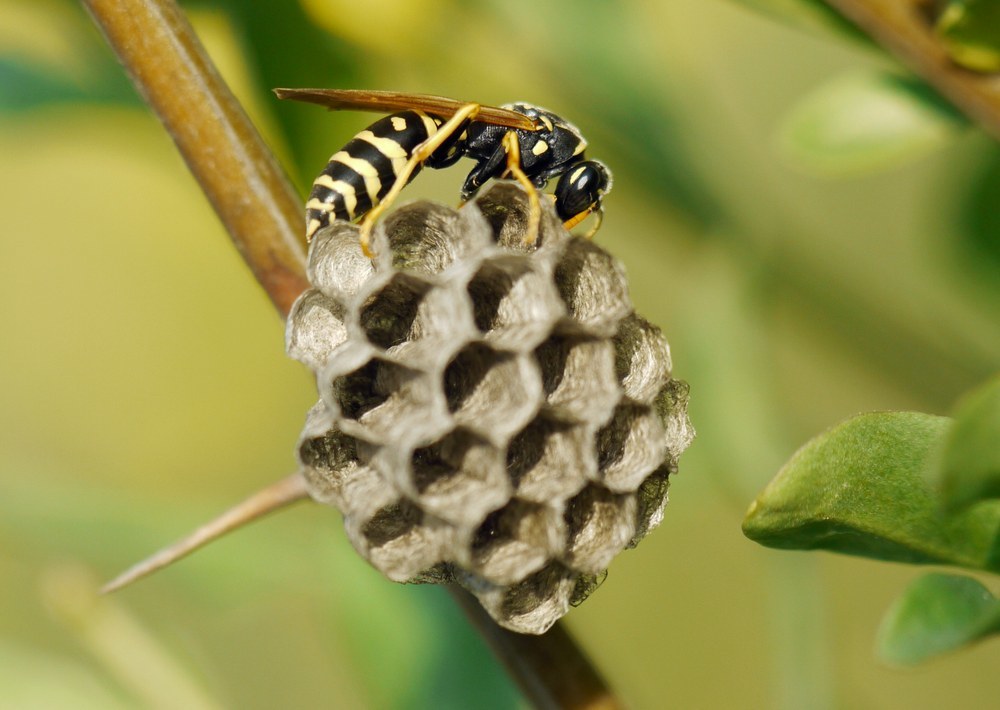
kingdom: Animalia
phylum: Arthropoda
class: Insecta
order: Hymenoptera
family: Eumenidae
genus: Polistes
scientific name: Polistes gallicus
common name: Paper wasp
